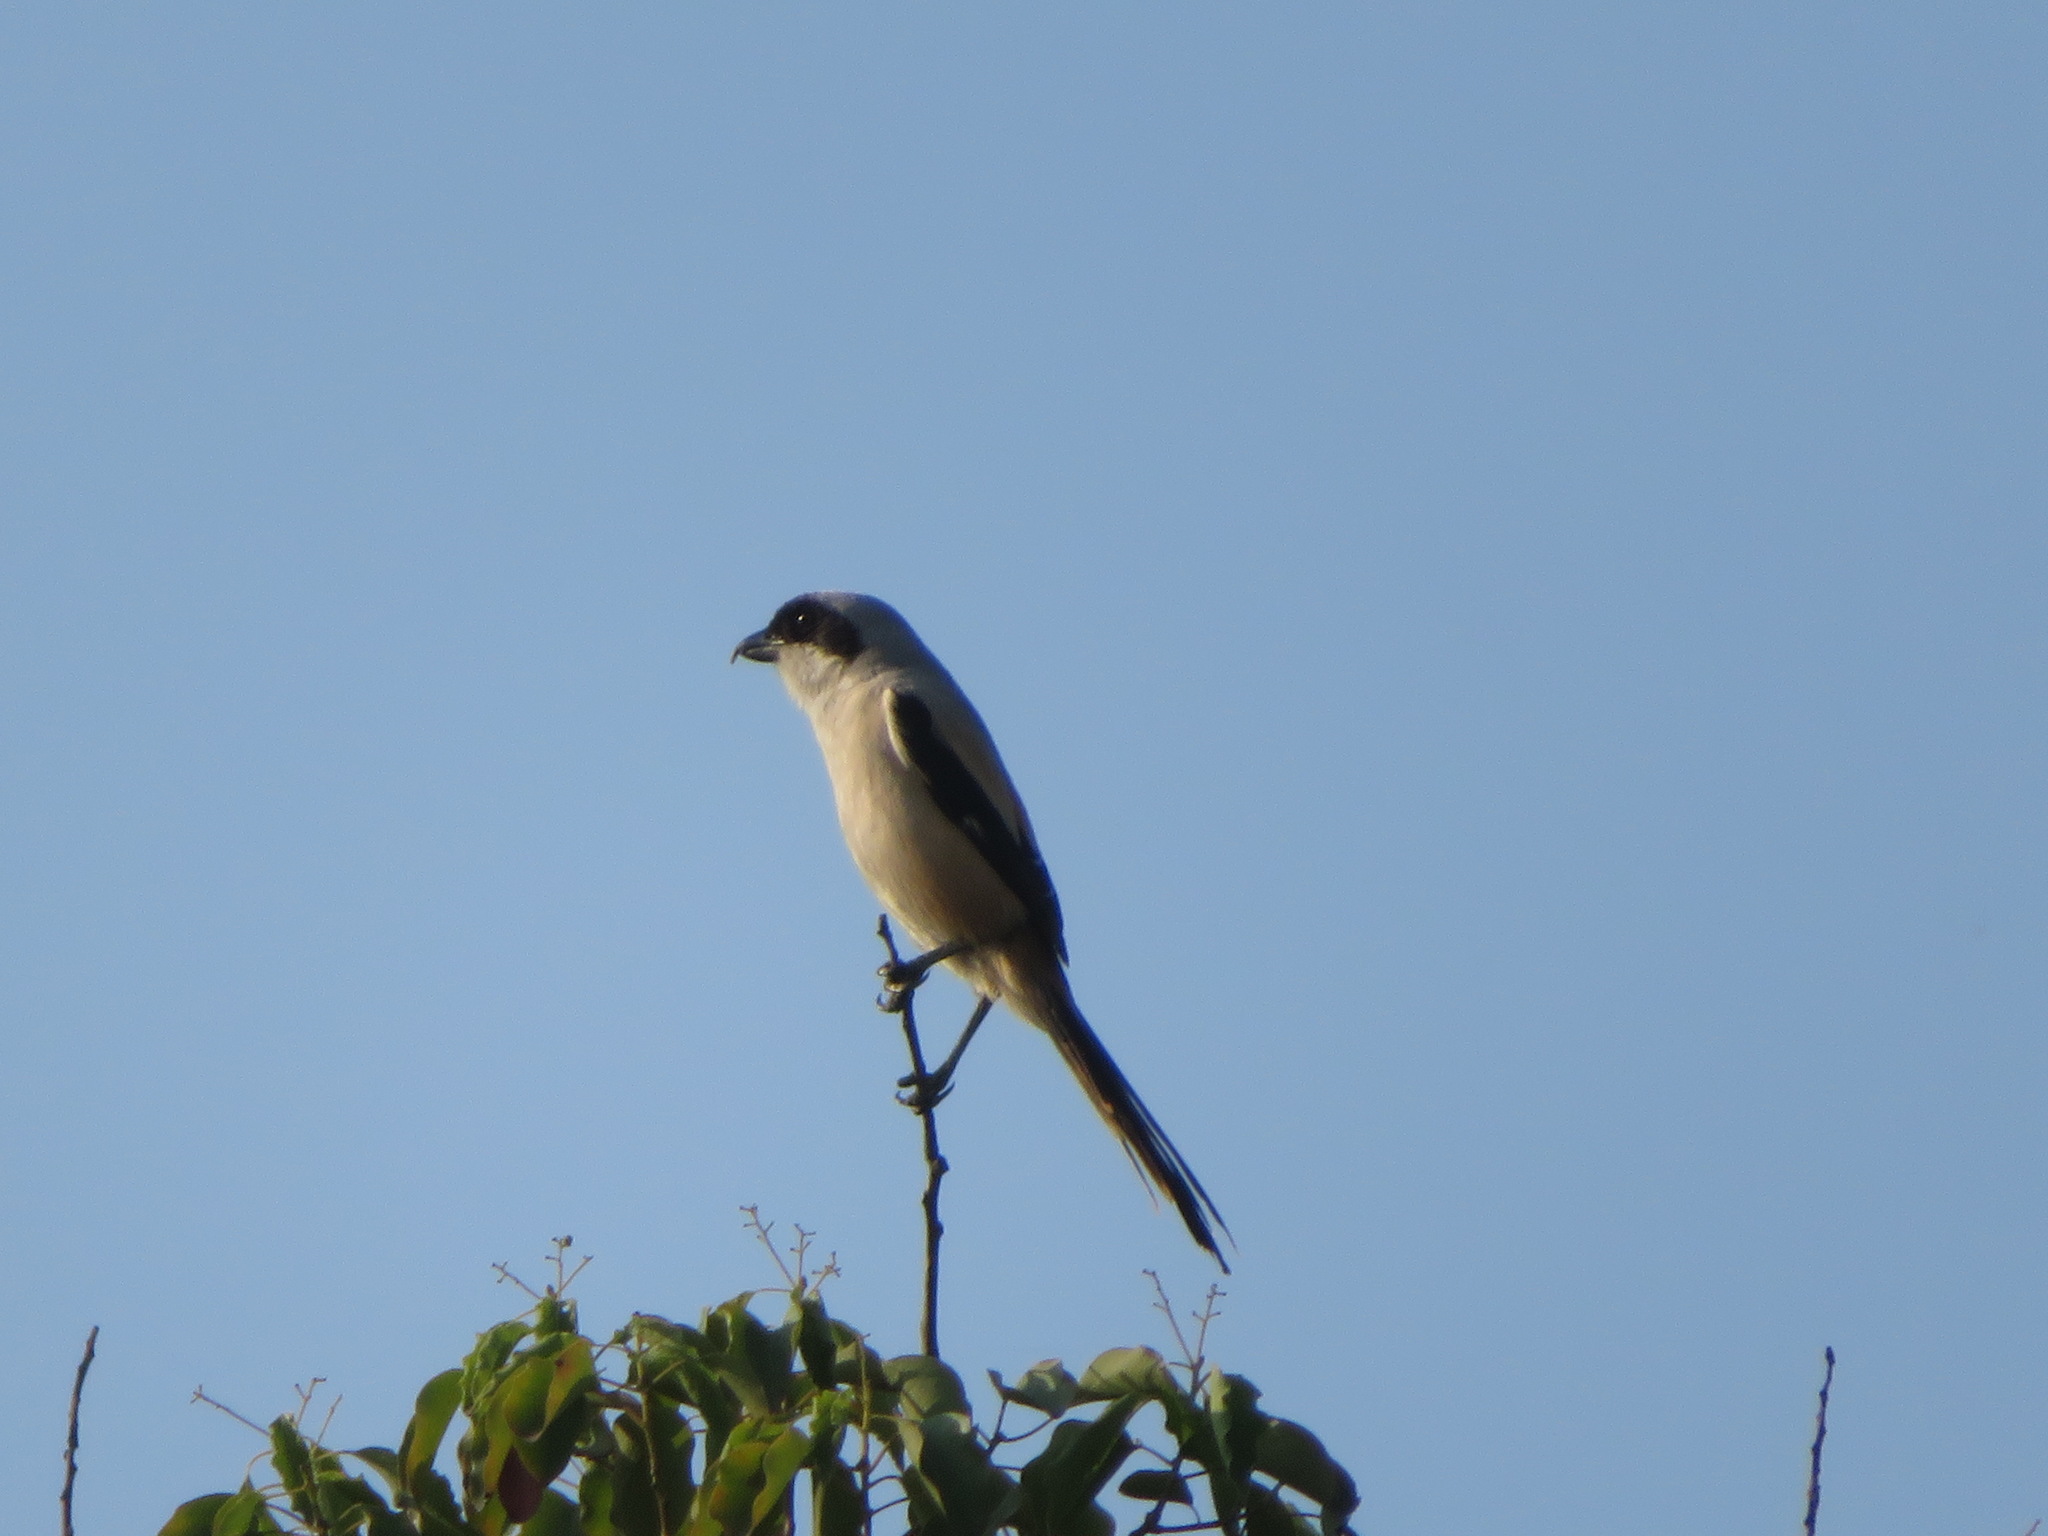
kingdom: Animalia
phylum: Chordata
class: Aves
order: Passeriformes
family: Laniidae
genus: Lanius
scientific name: Lanius schach
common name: Long-tailed shrike
